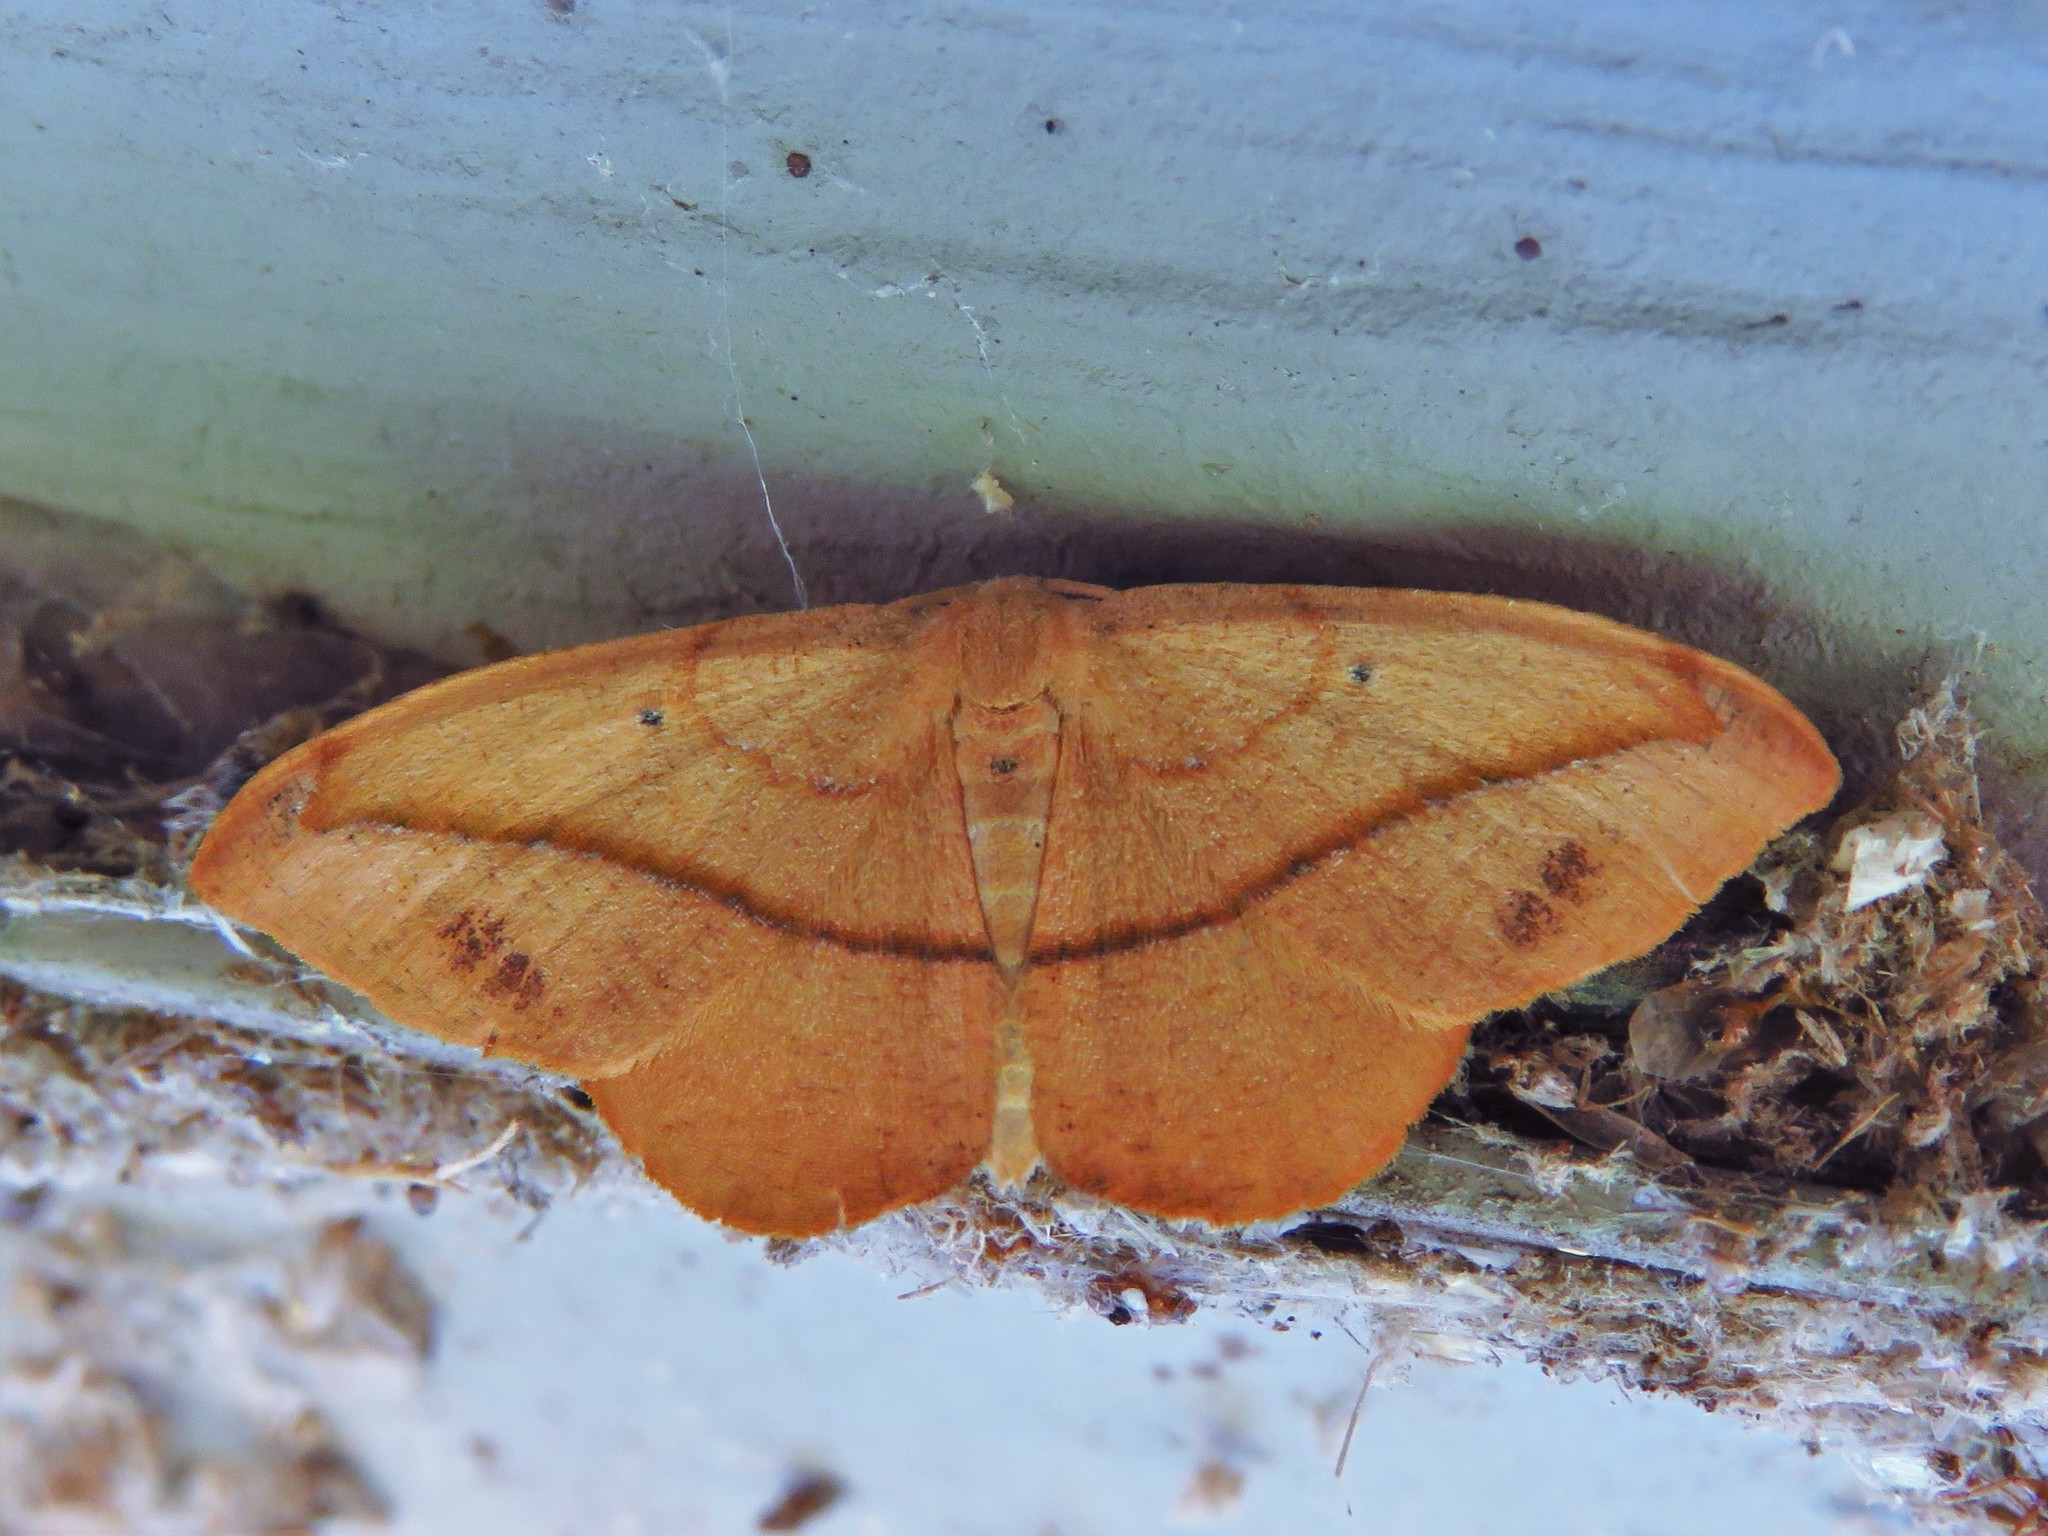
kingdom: Animalia
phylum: Arthropoda
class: Insecta
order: Lepidoptera
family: Geometridae
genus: Patalene
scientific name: Patalene olyzonaria
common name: Juniper geometer moth
